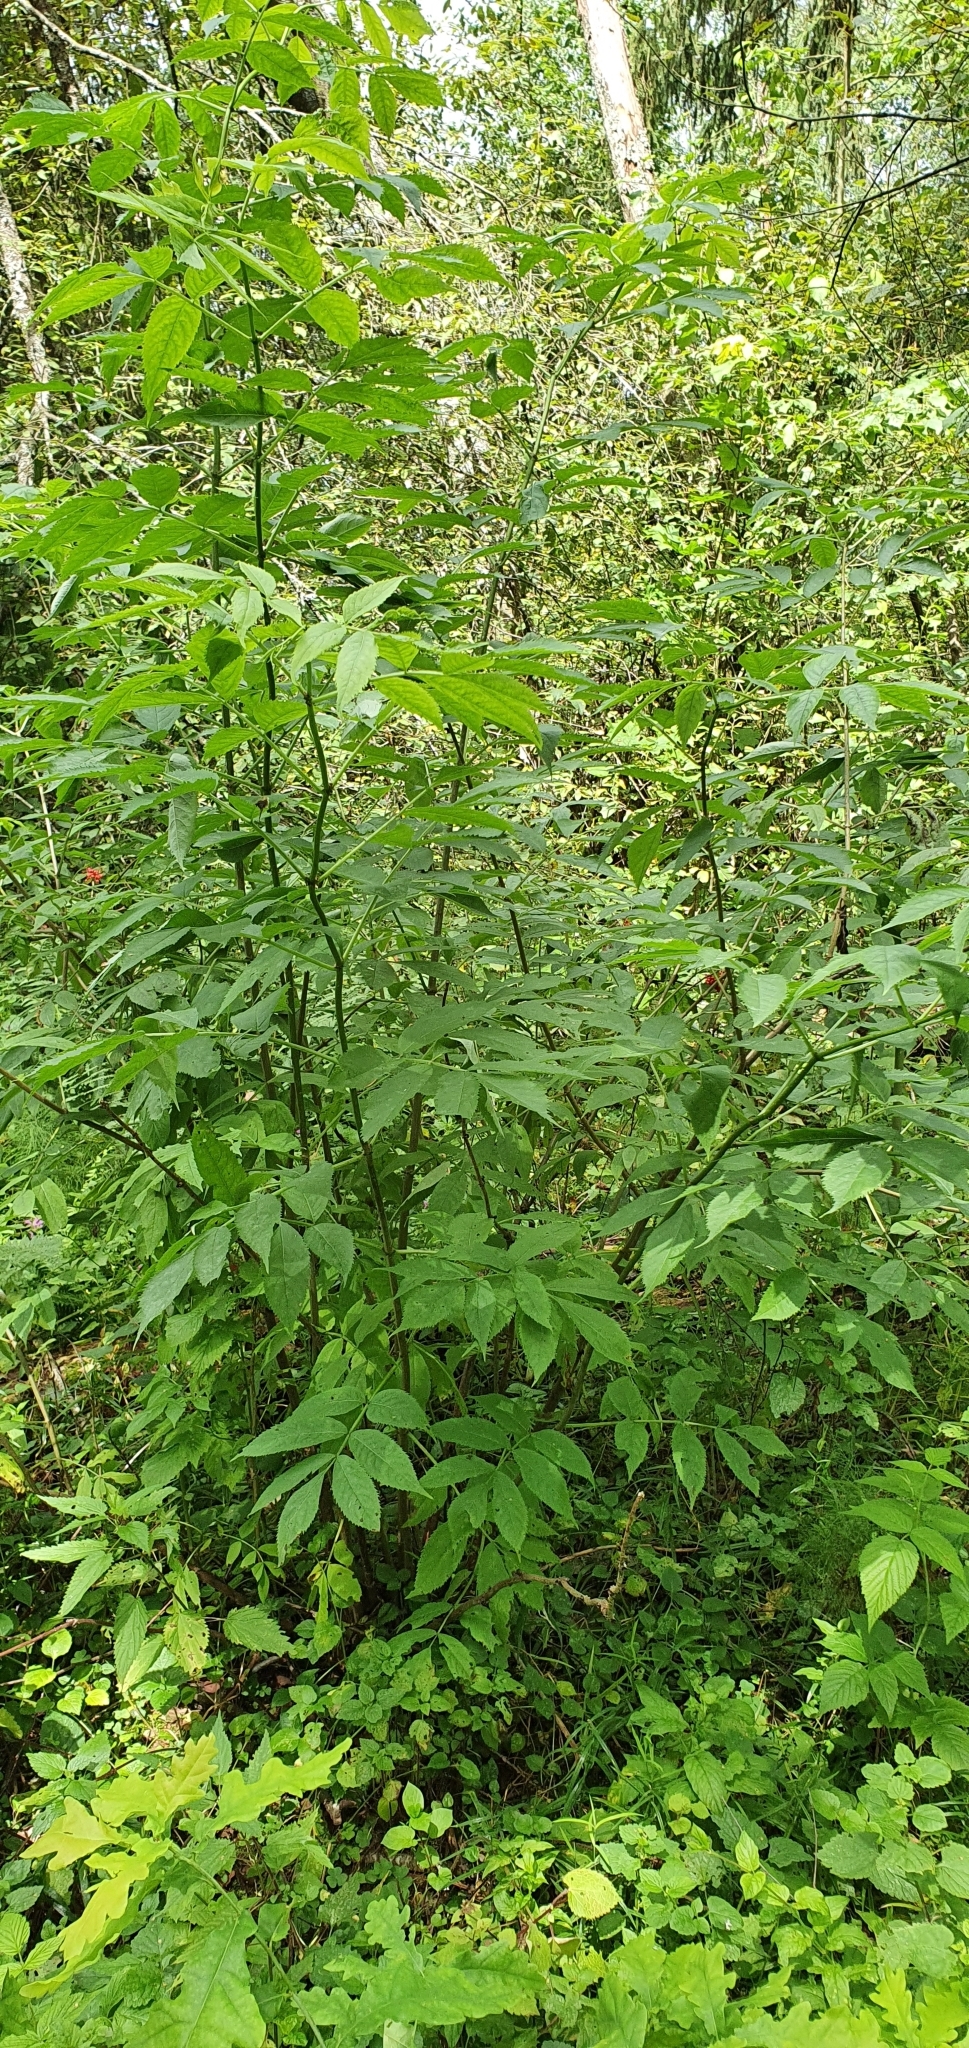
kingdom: Plantae
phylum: Tracheophyta
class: Magnoliopsida
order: Dipsacales
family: Viburnaceae
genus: Sambucus
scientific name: Sambucus racemosa
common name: Red-berried elder
